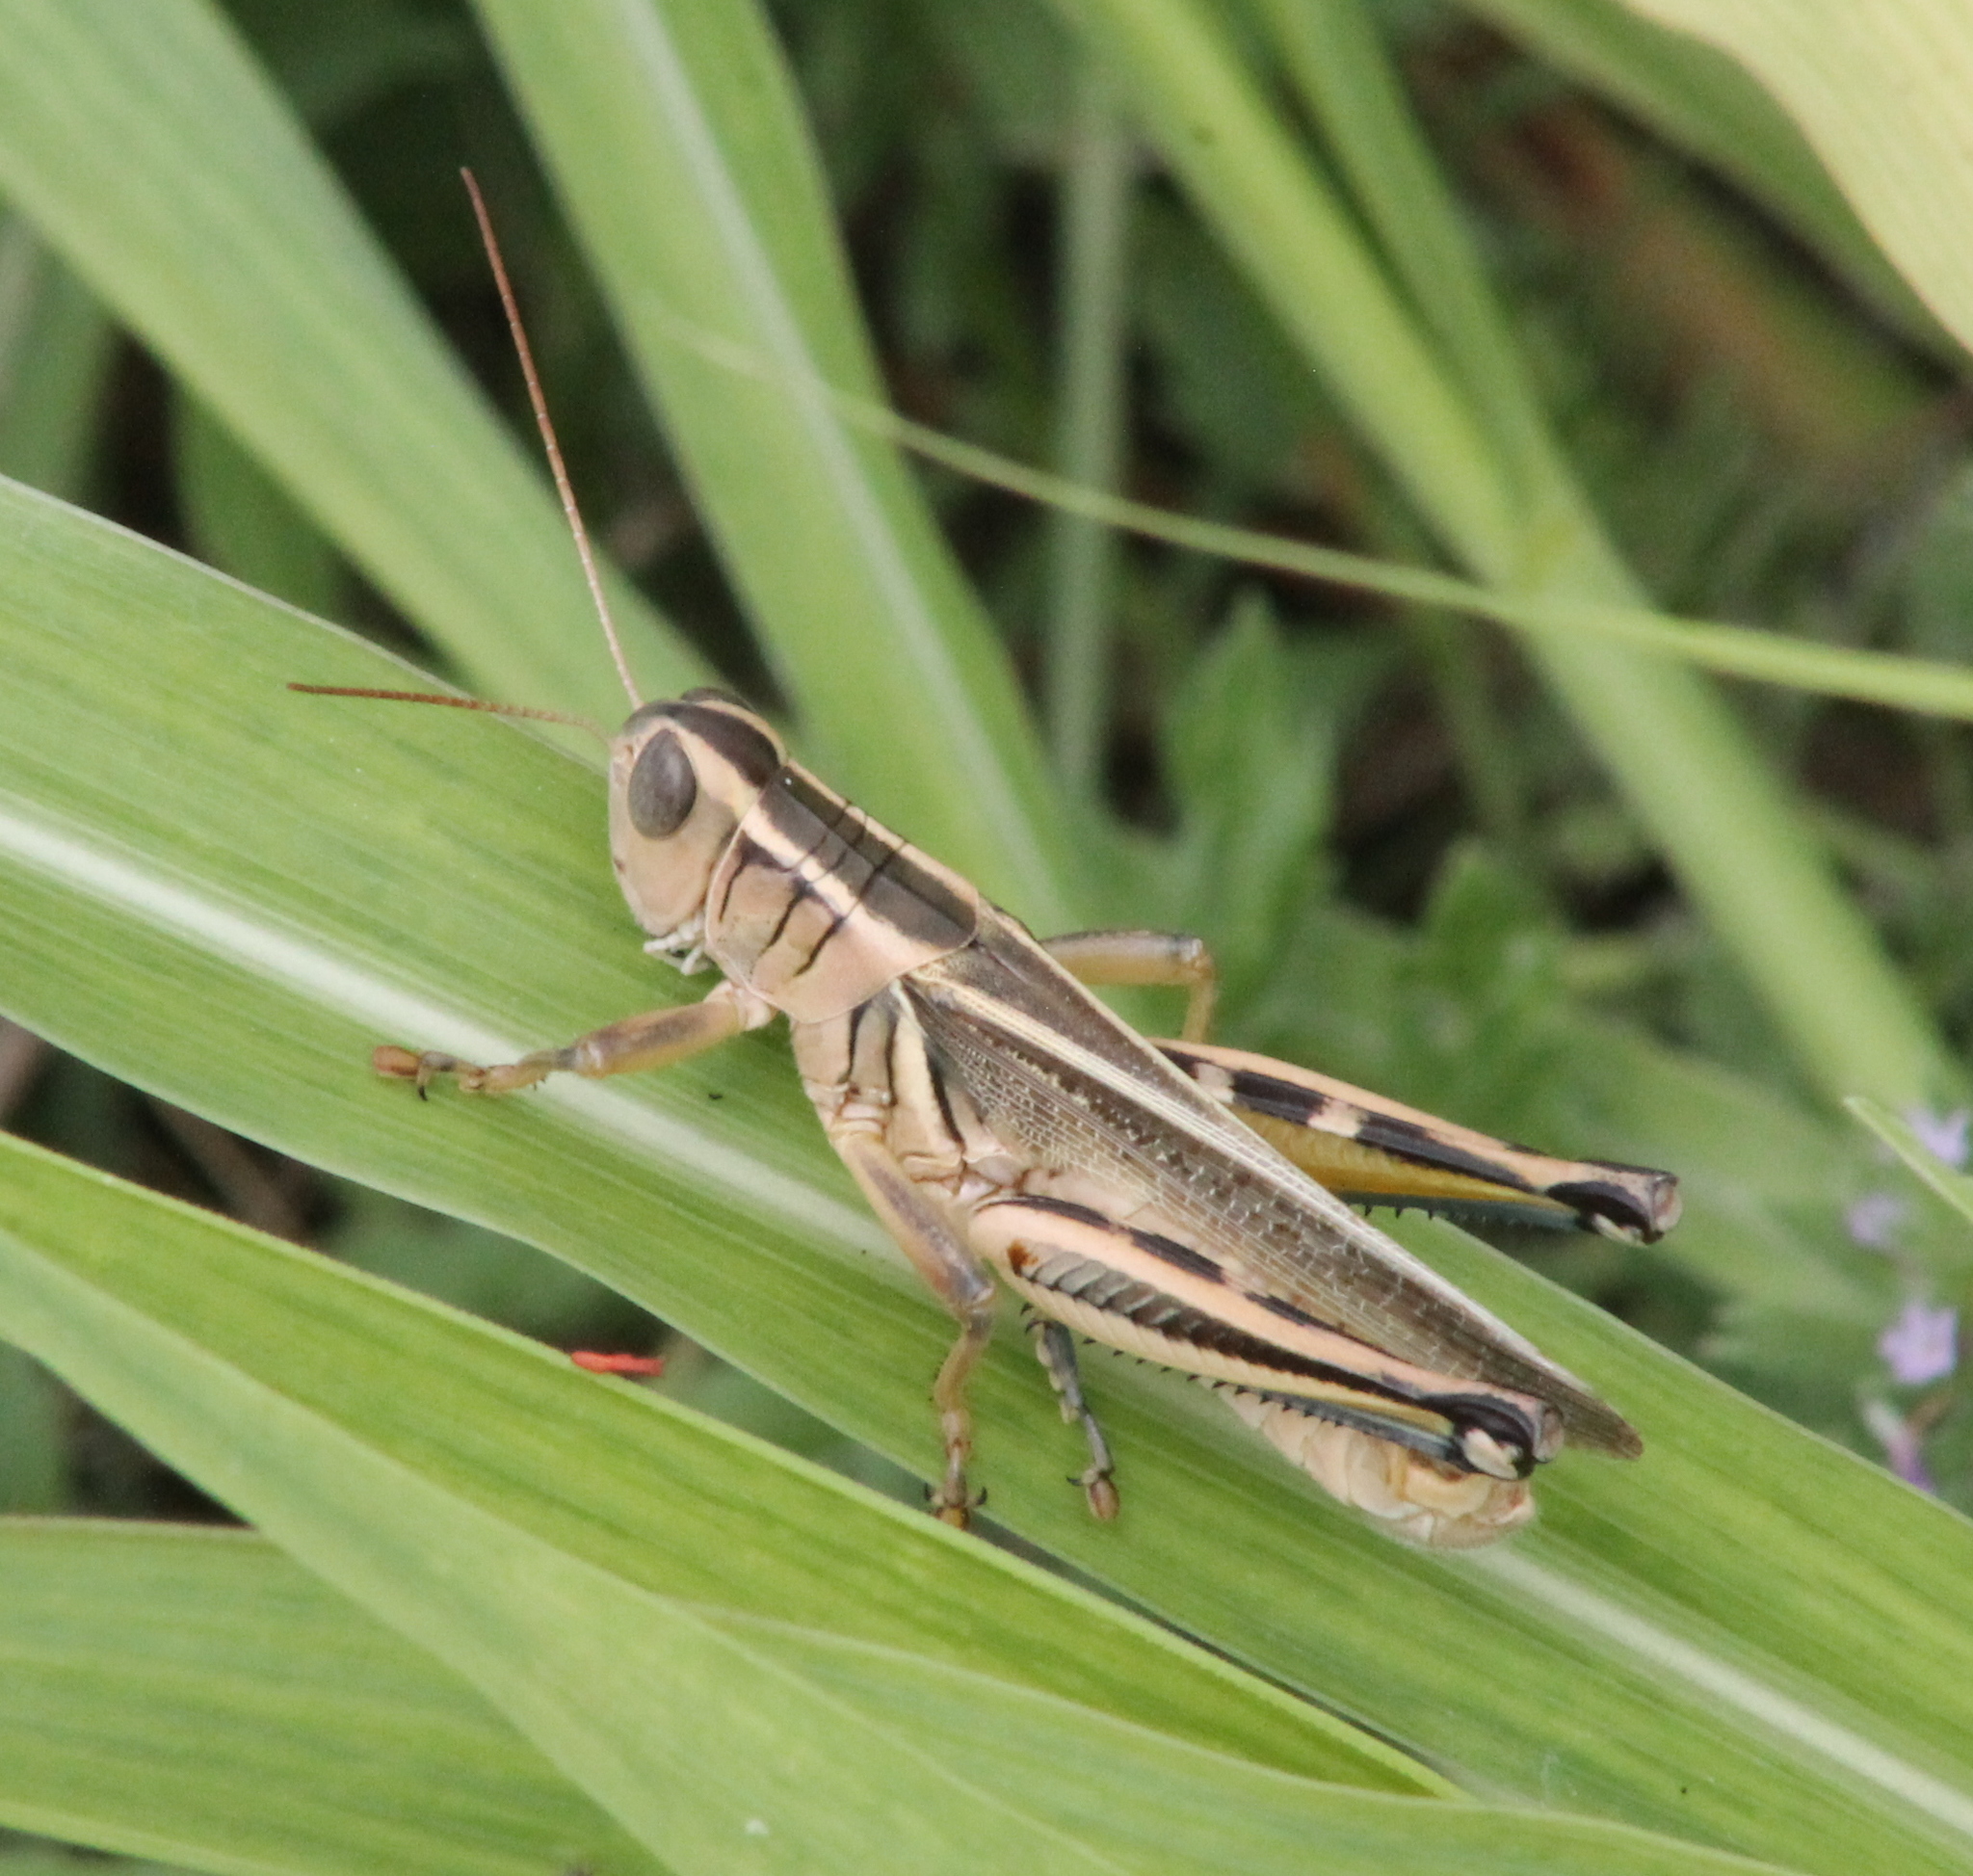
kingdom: Animalia
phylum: Arthropoda
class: Insecta
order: Orthoptera
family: Acrididae
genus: Melanoplus
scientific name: Melanoplus bivittatus
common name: Two-striped grasshopper
